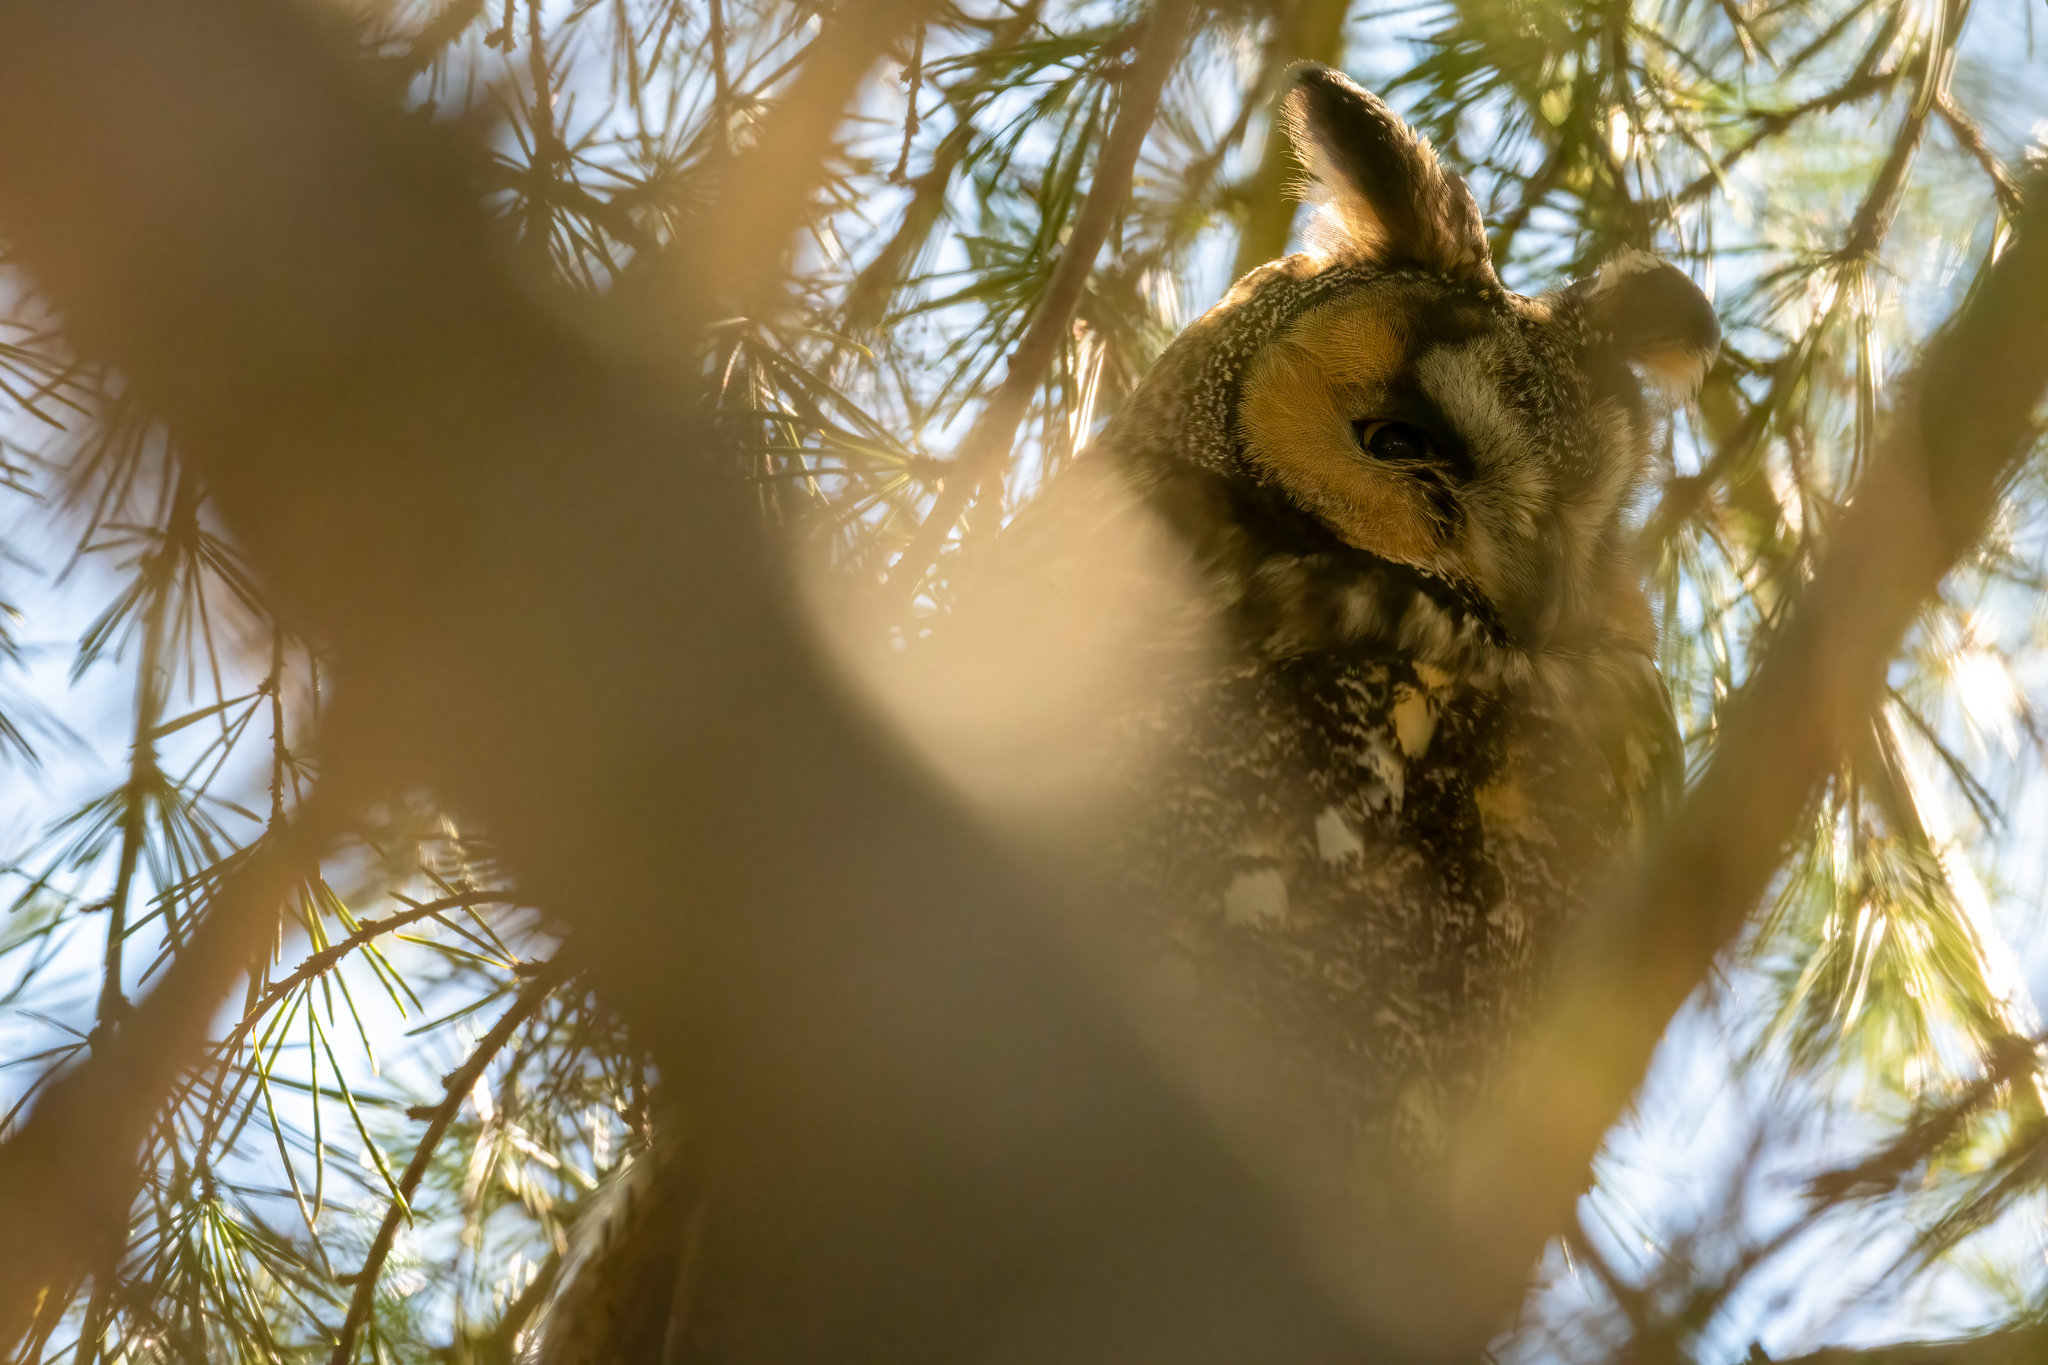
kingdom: Animalia
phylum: Chordata
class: Aves
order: Strigiformes
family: Strigidae
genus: Asio
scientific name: Asio otus
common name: Long-eared owl
